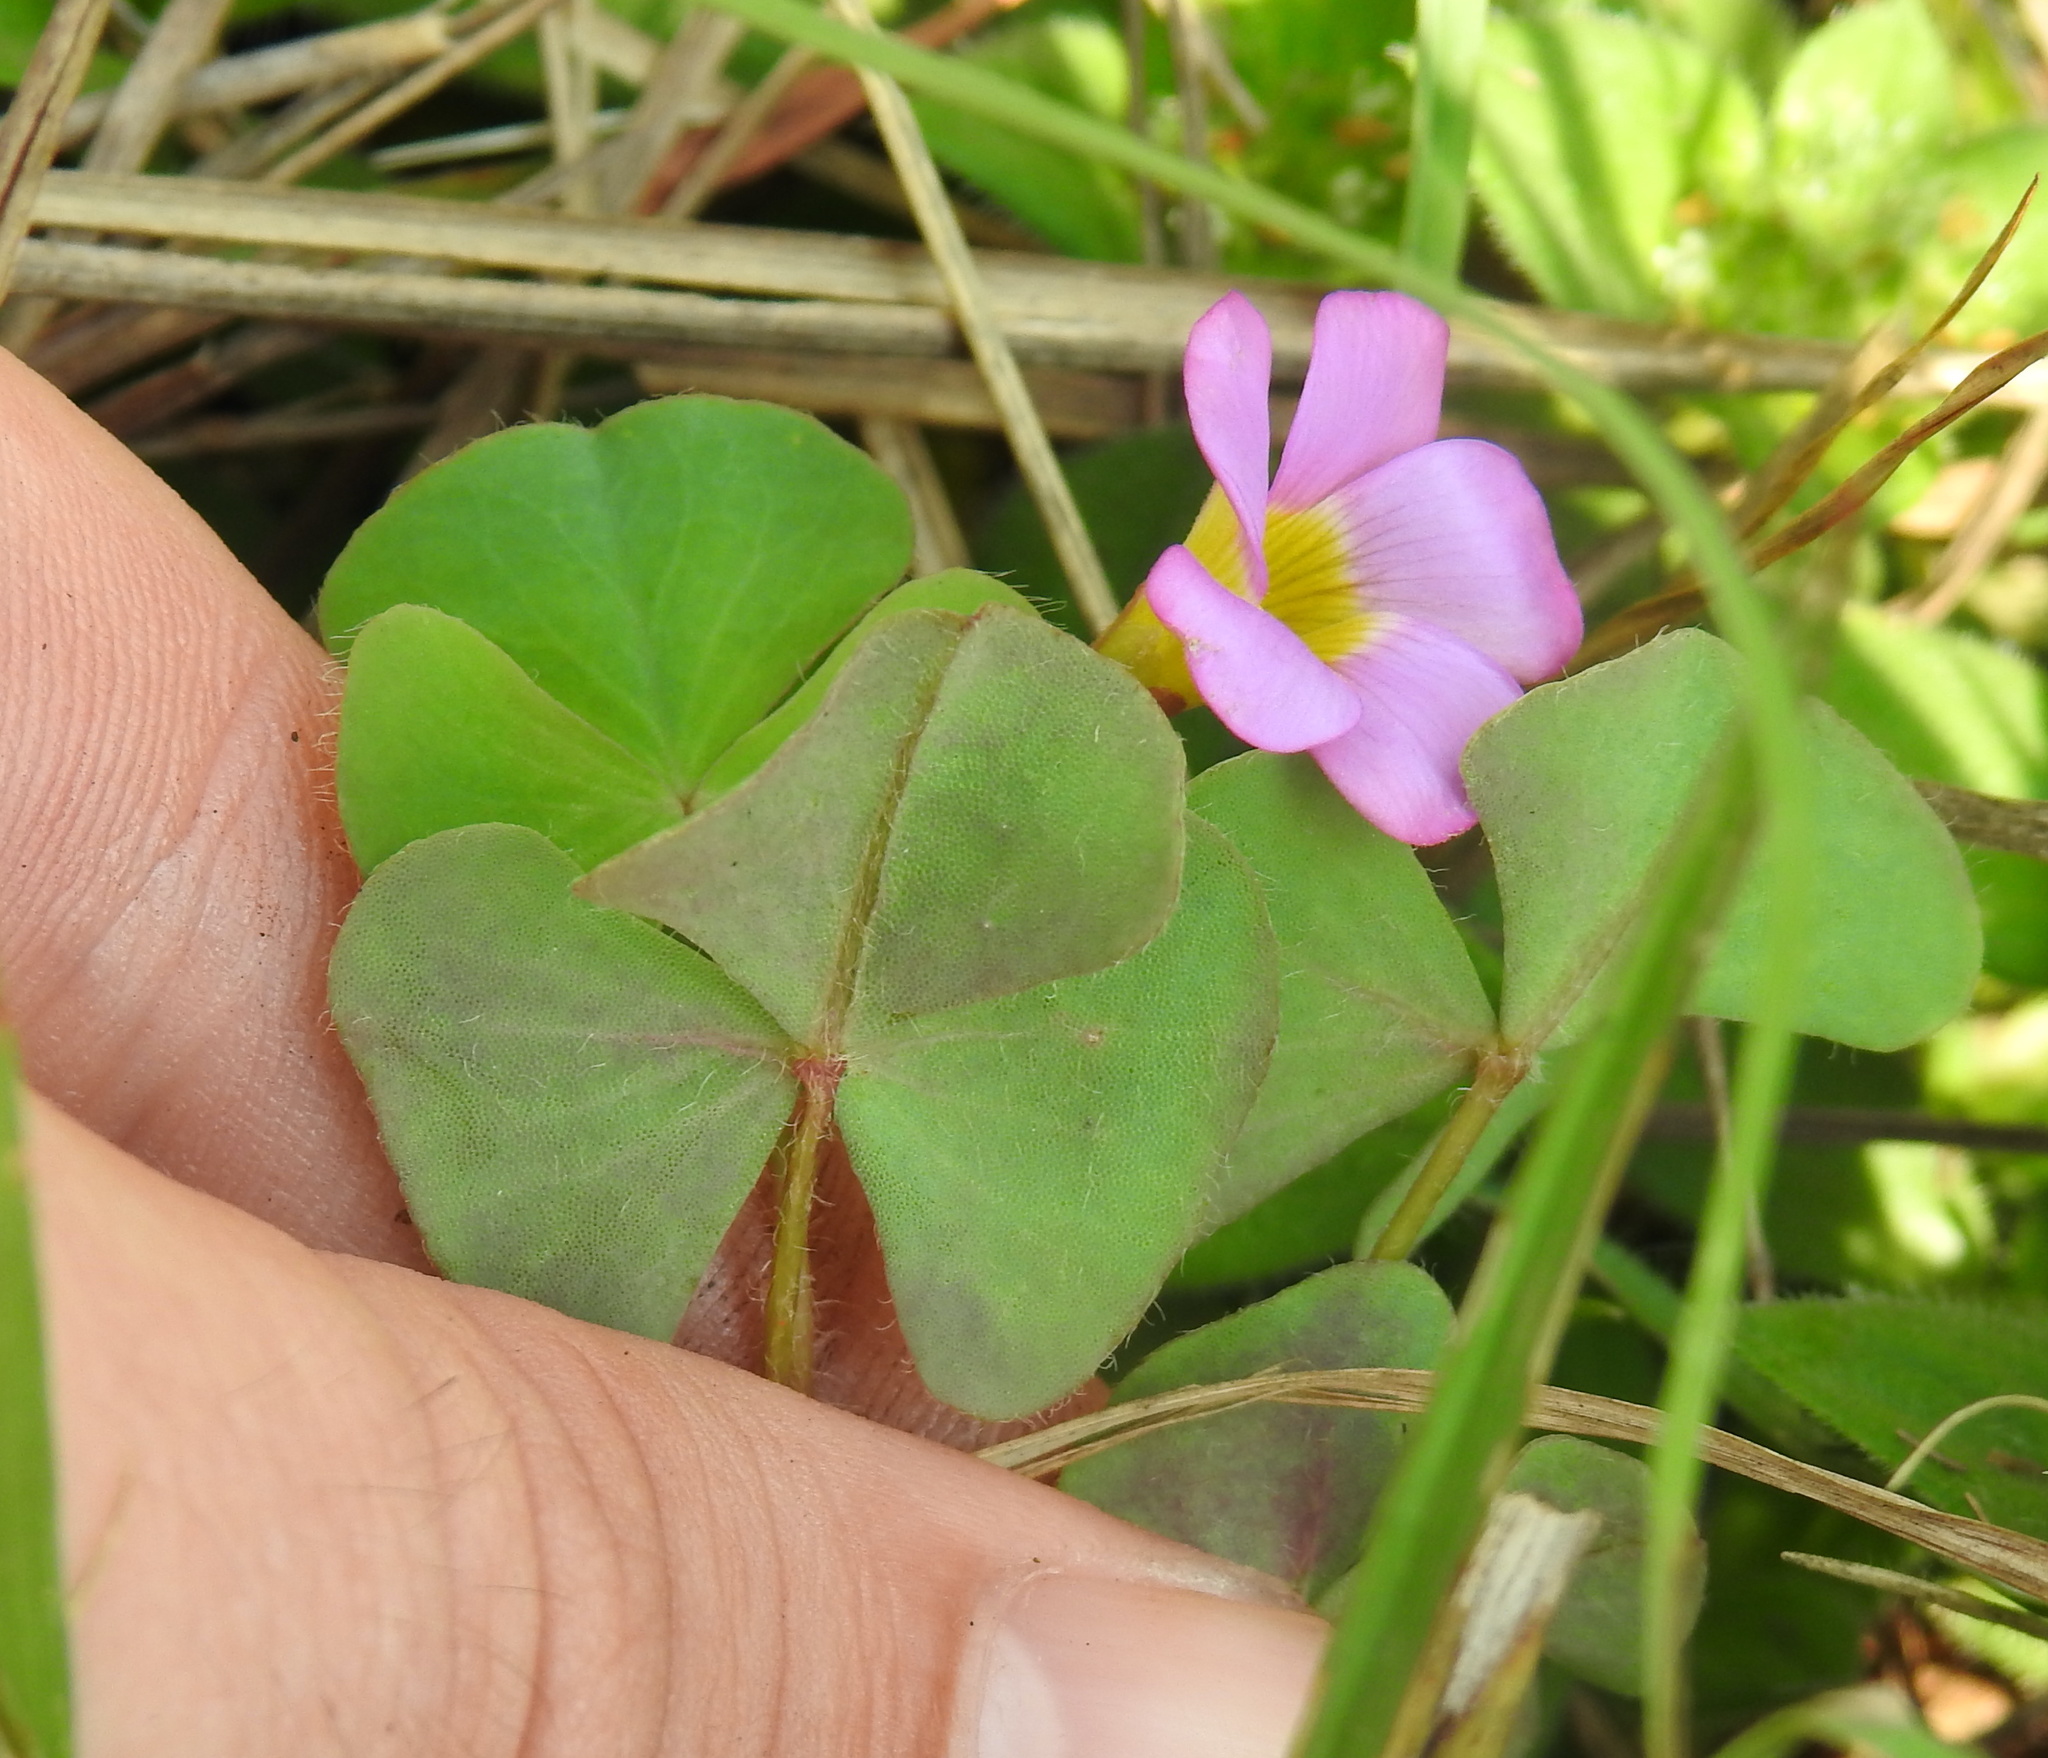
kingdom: Plantae
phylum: Tracheophyta
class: Magnoliopsida
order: Oxalidales
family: Oxalidaceae
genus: Oxalis
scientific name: Oxalis obliquifolia
